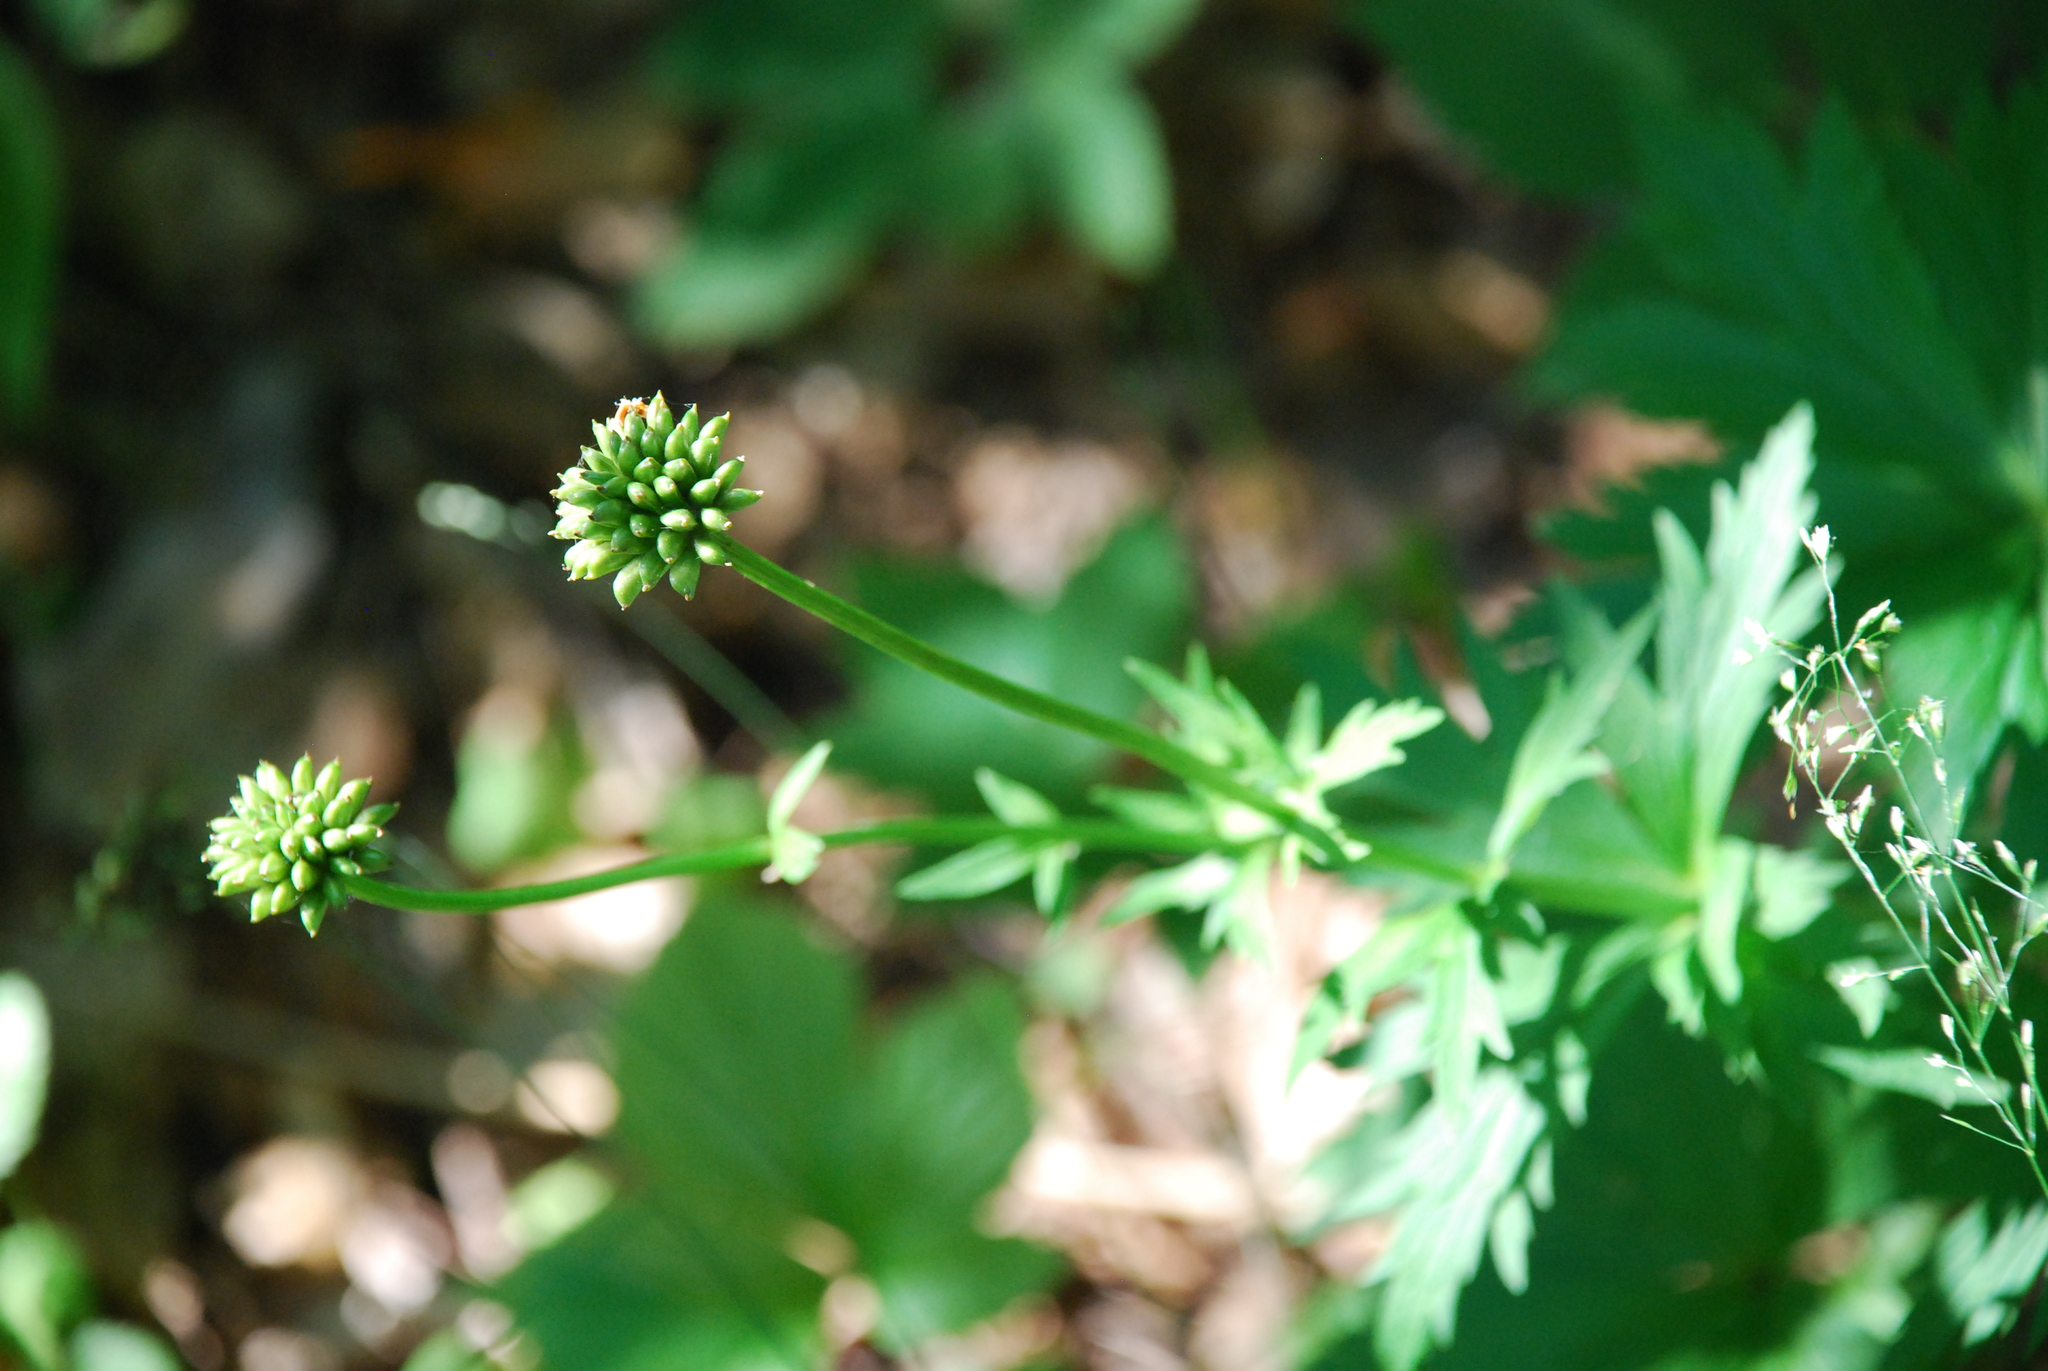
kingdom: Plantae
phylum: Tracheophyta
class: Magnoliopsida
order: Ranunculales
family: Ranunculaceae
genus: Trollius
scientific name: Trollius europaeus
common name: European globeflower
